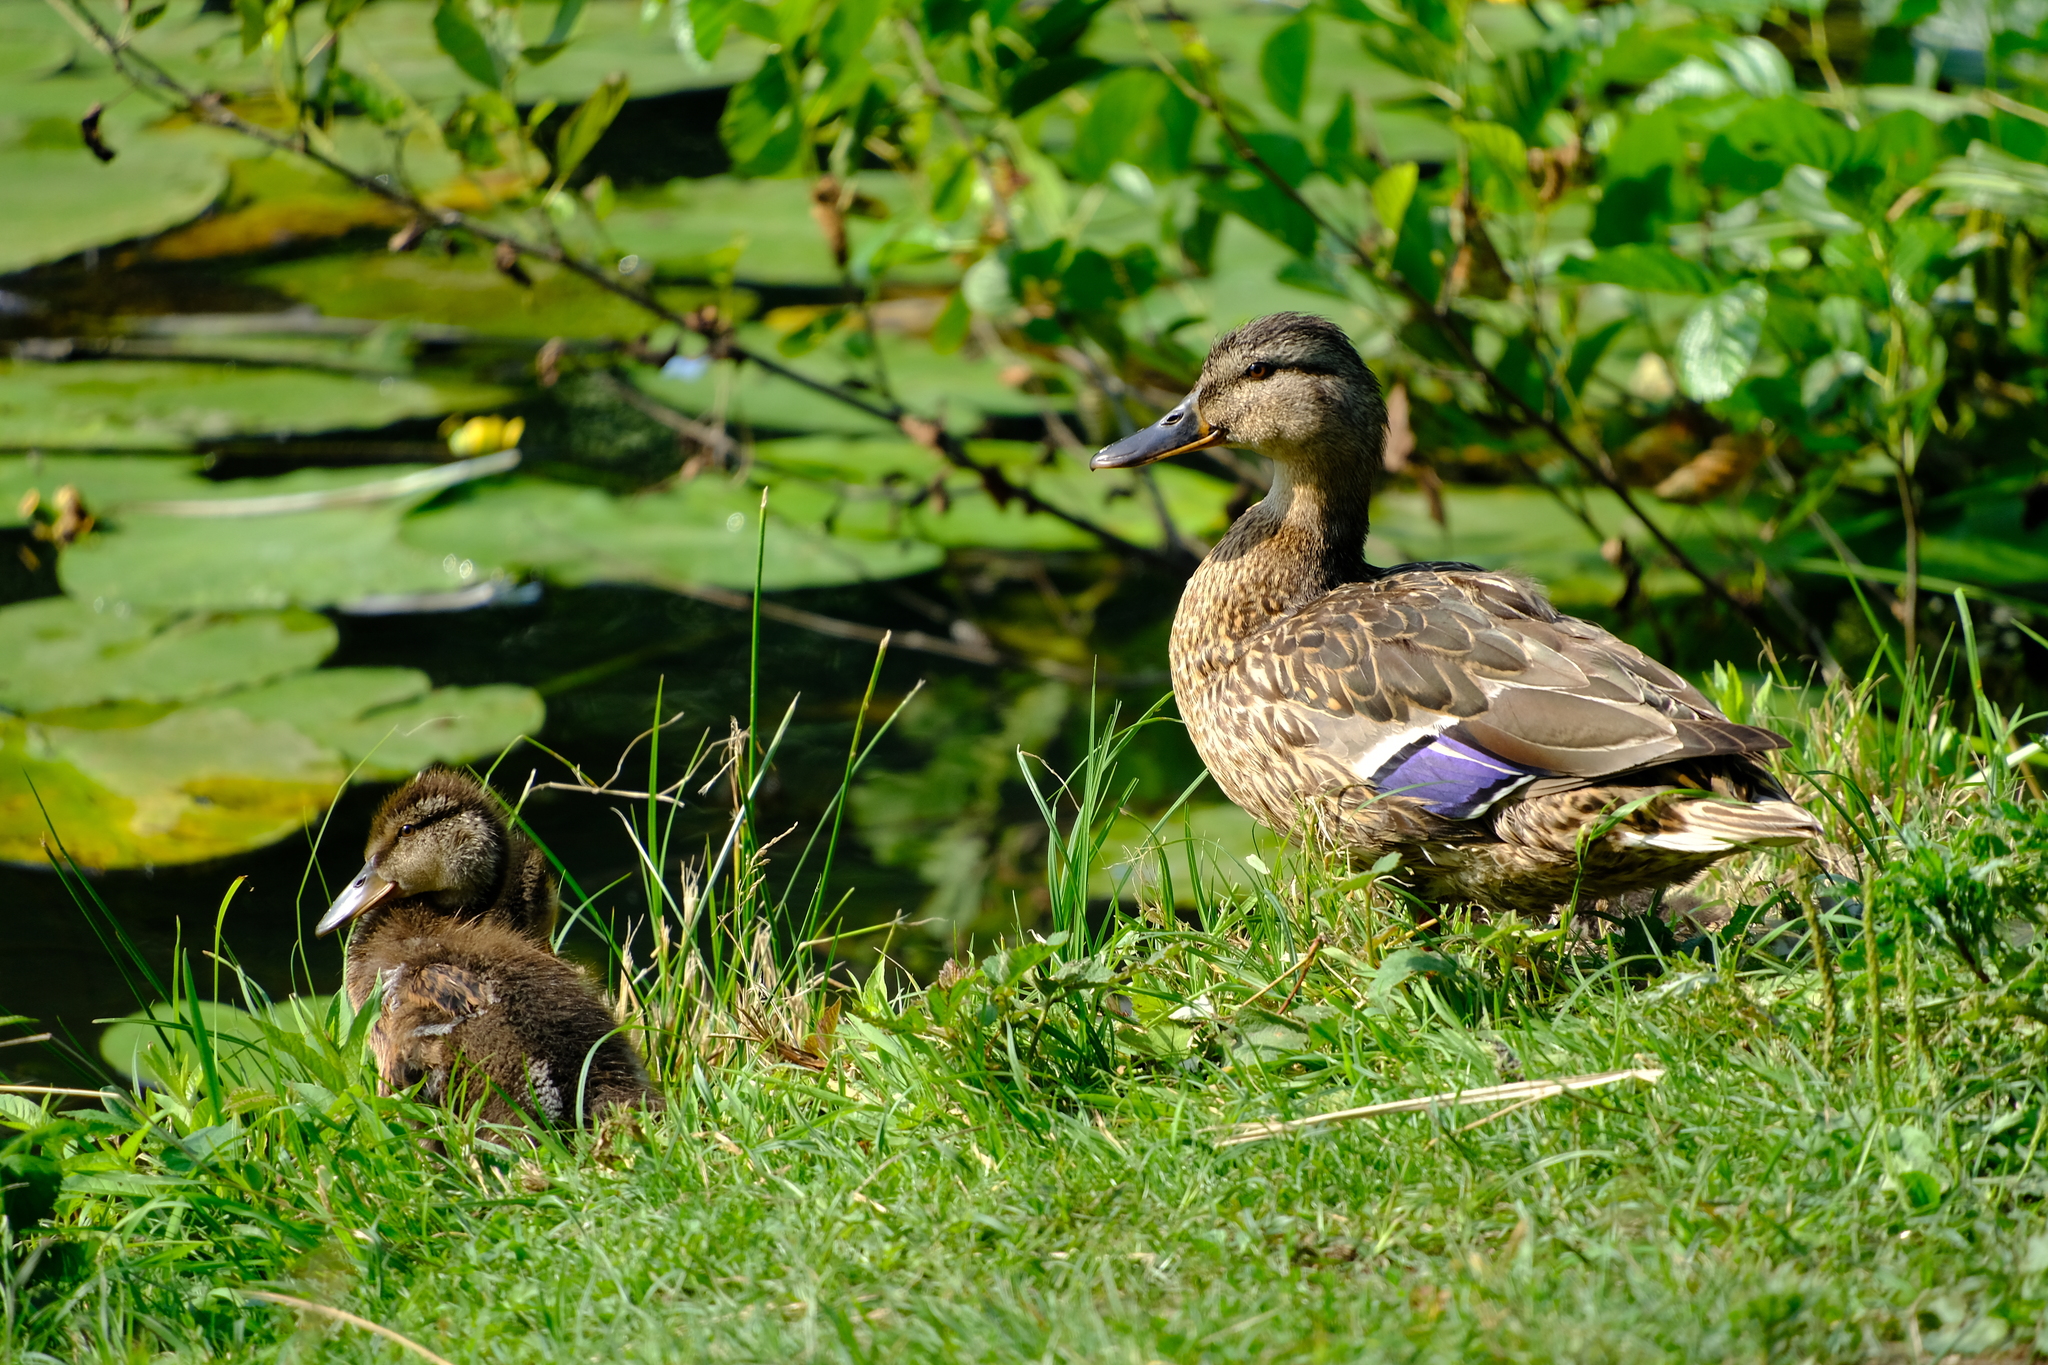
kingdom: Animalia
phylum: Chordata
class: Aves
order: Anseriformes
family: Anatidae
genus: Anas
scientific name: Anas platyrhynchos
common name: Mallard
